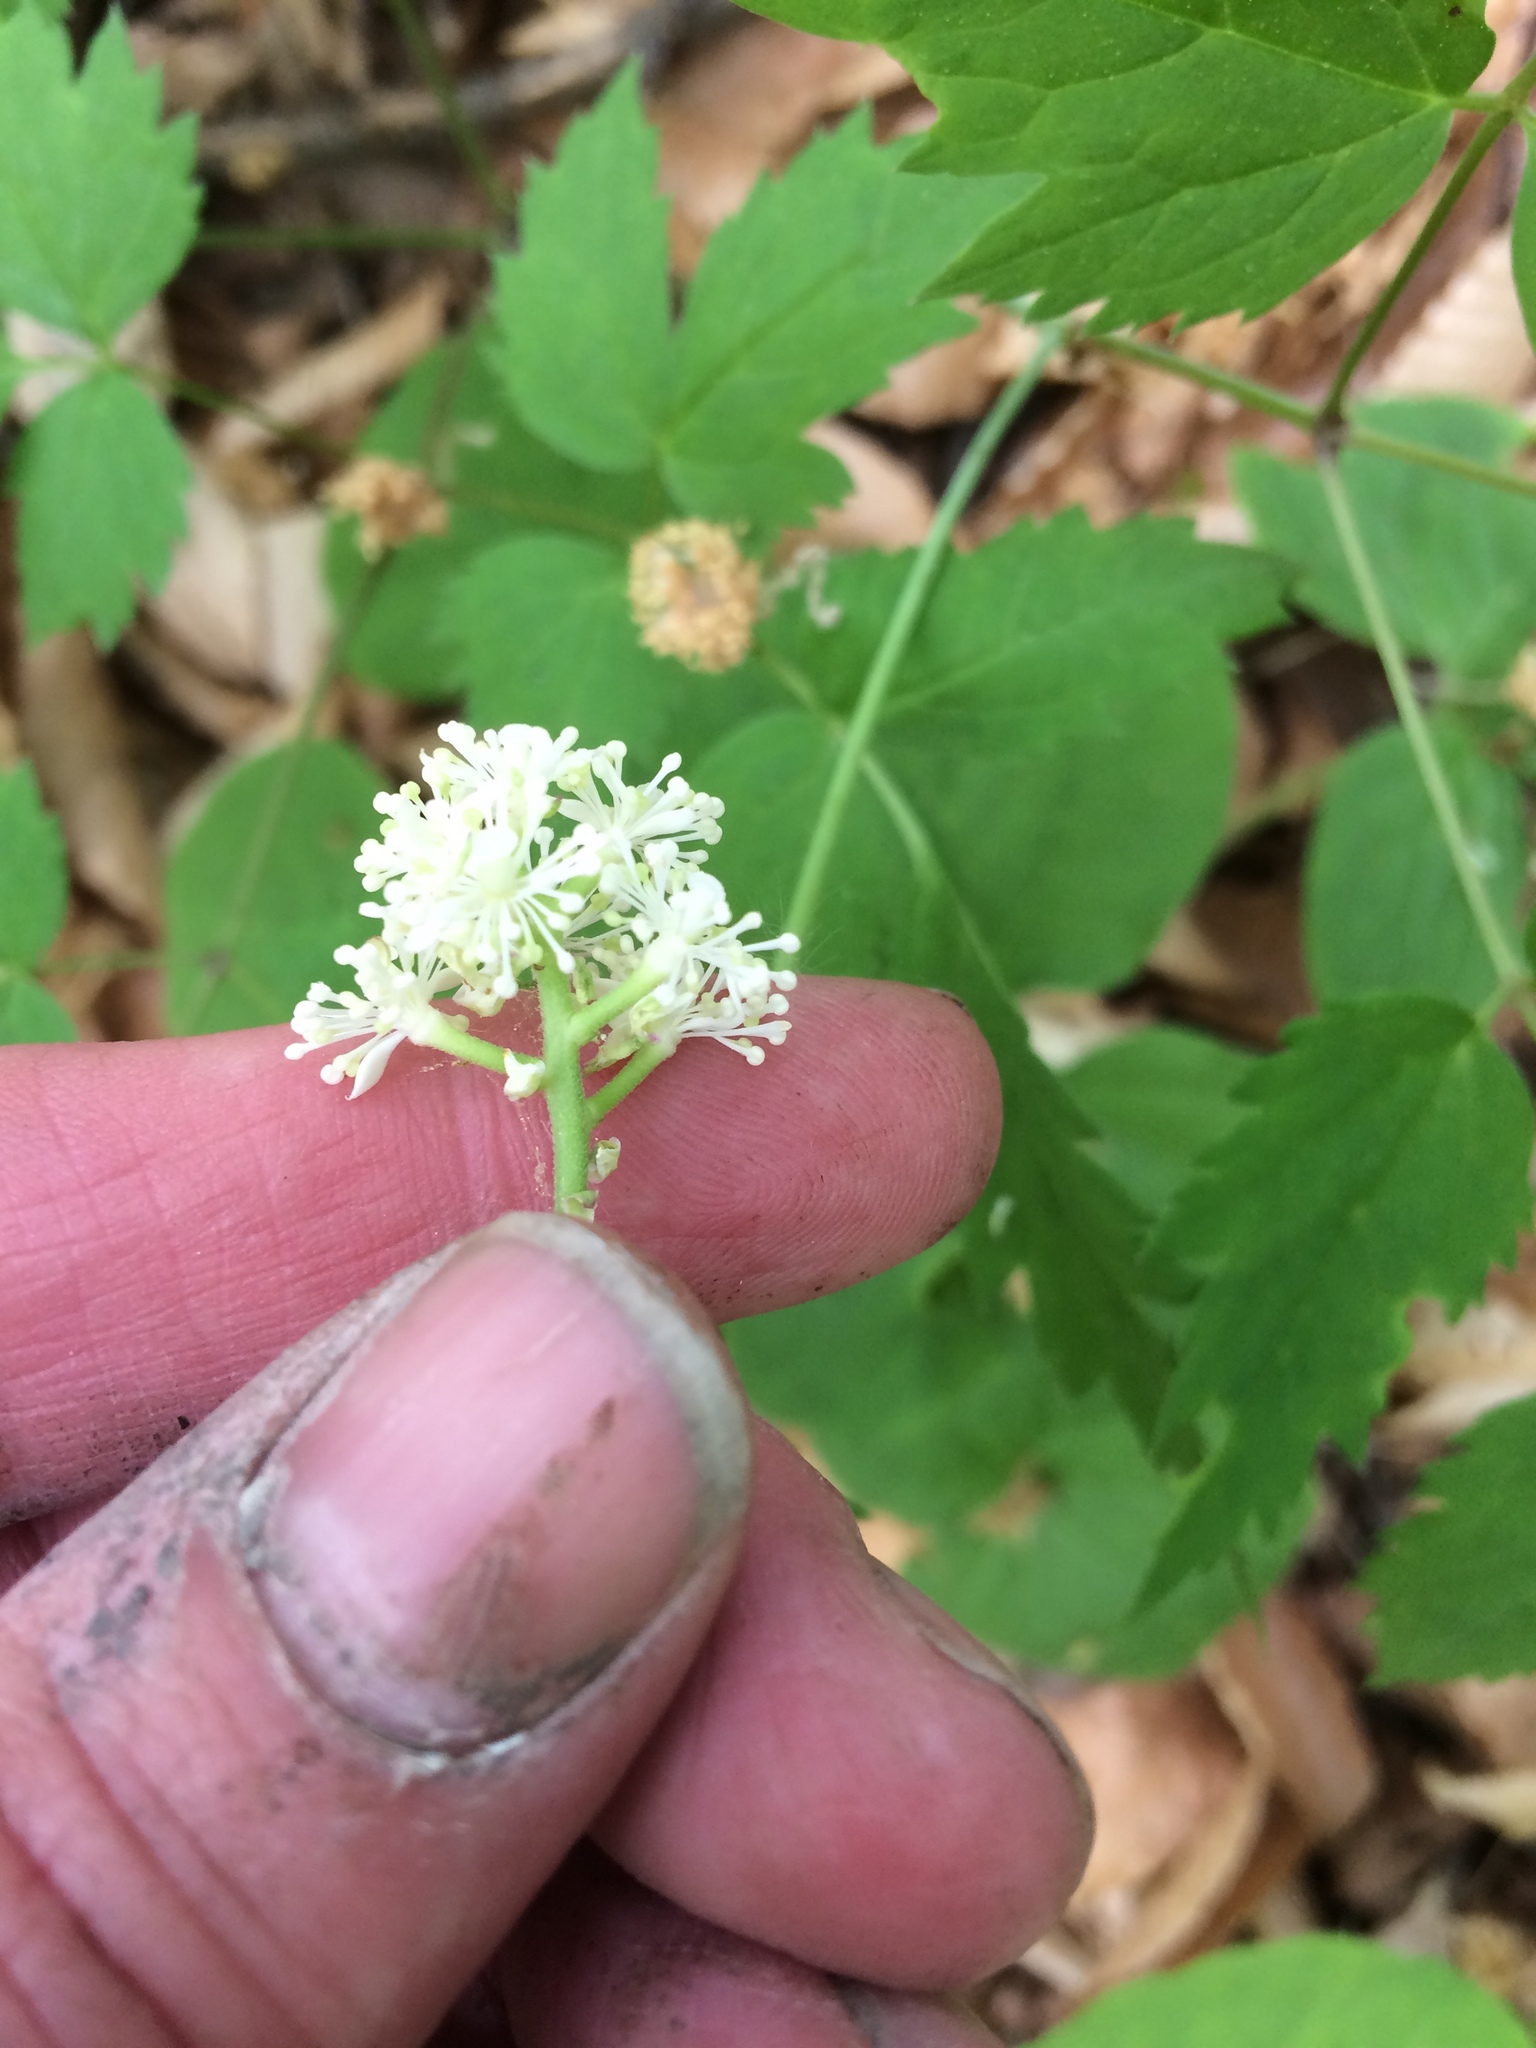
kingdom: Plantae
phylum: Tracheophyta
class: Magnoliopsida
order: Ranunculales
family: Ranunculaceae
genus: Actaea
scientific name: Actaea pachypoda
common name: Doll's-eyes
